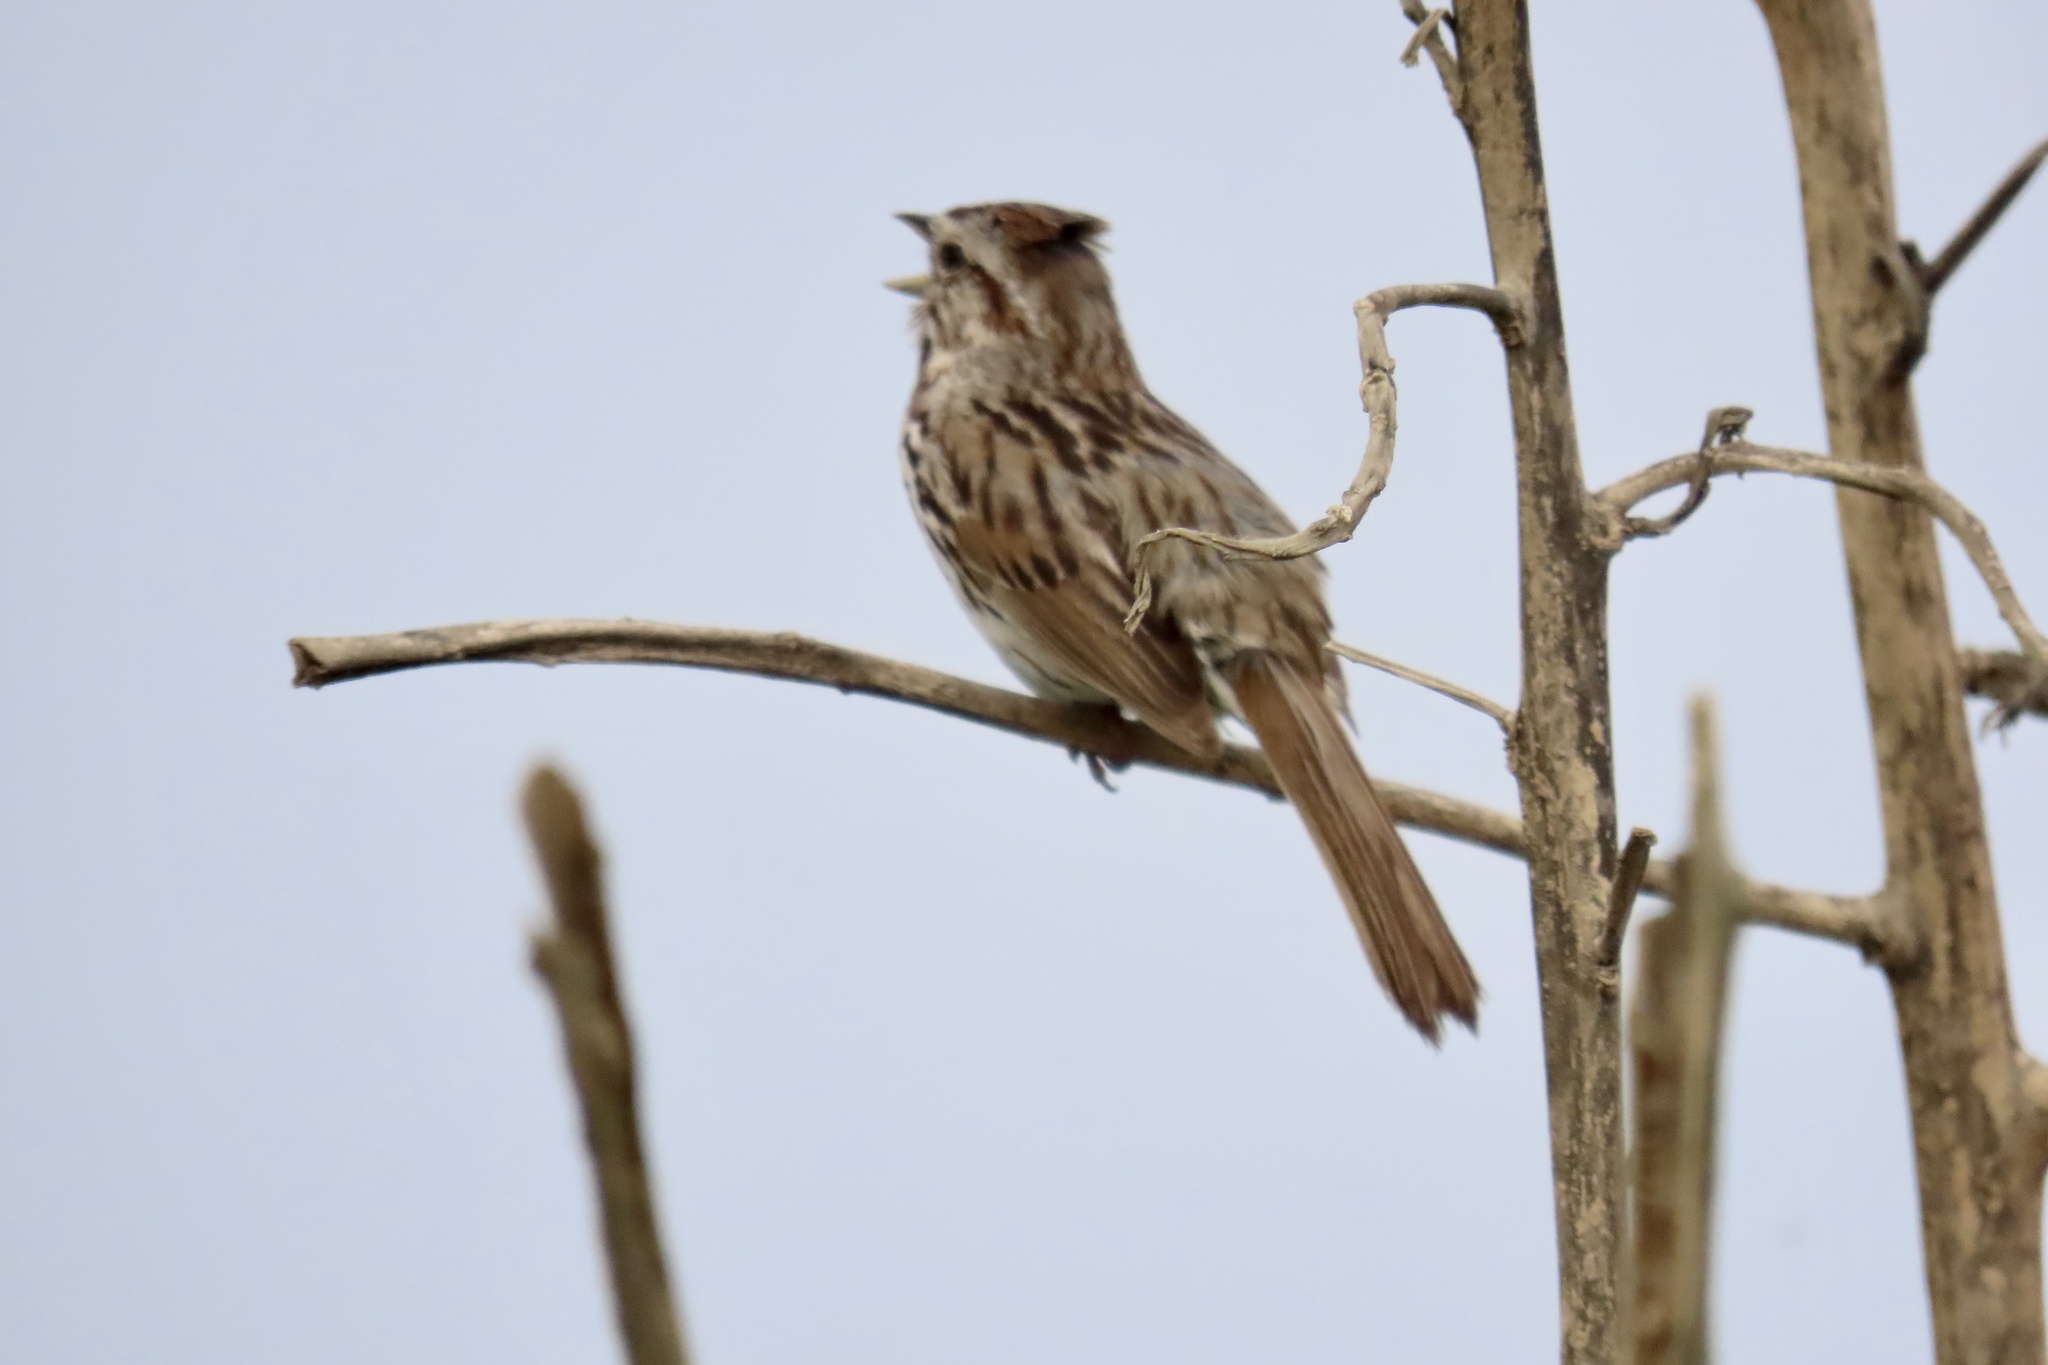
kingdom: Animalia
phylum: Chordata
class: Aves
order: Passeriformes
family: Passerellidae
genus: Melospiza
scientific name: Melospiza melodia
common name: Song sparrow
